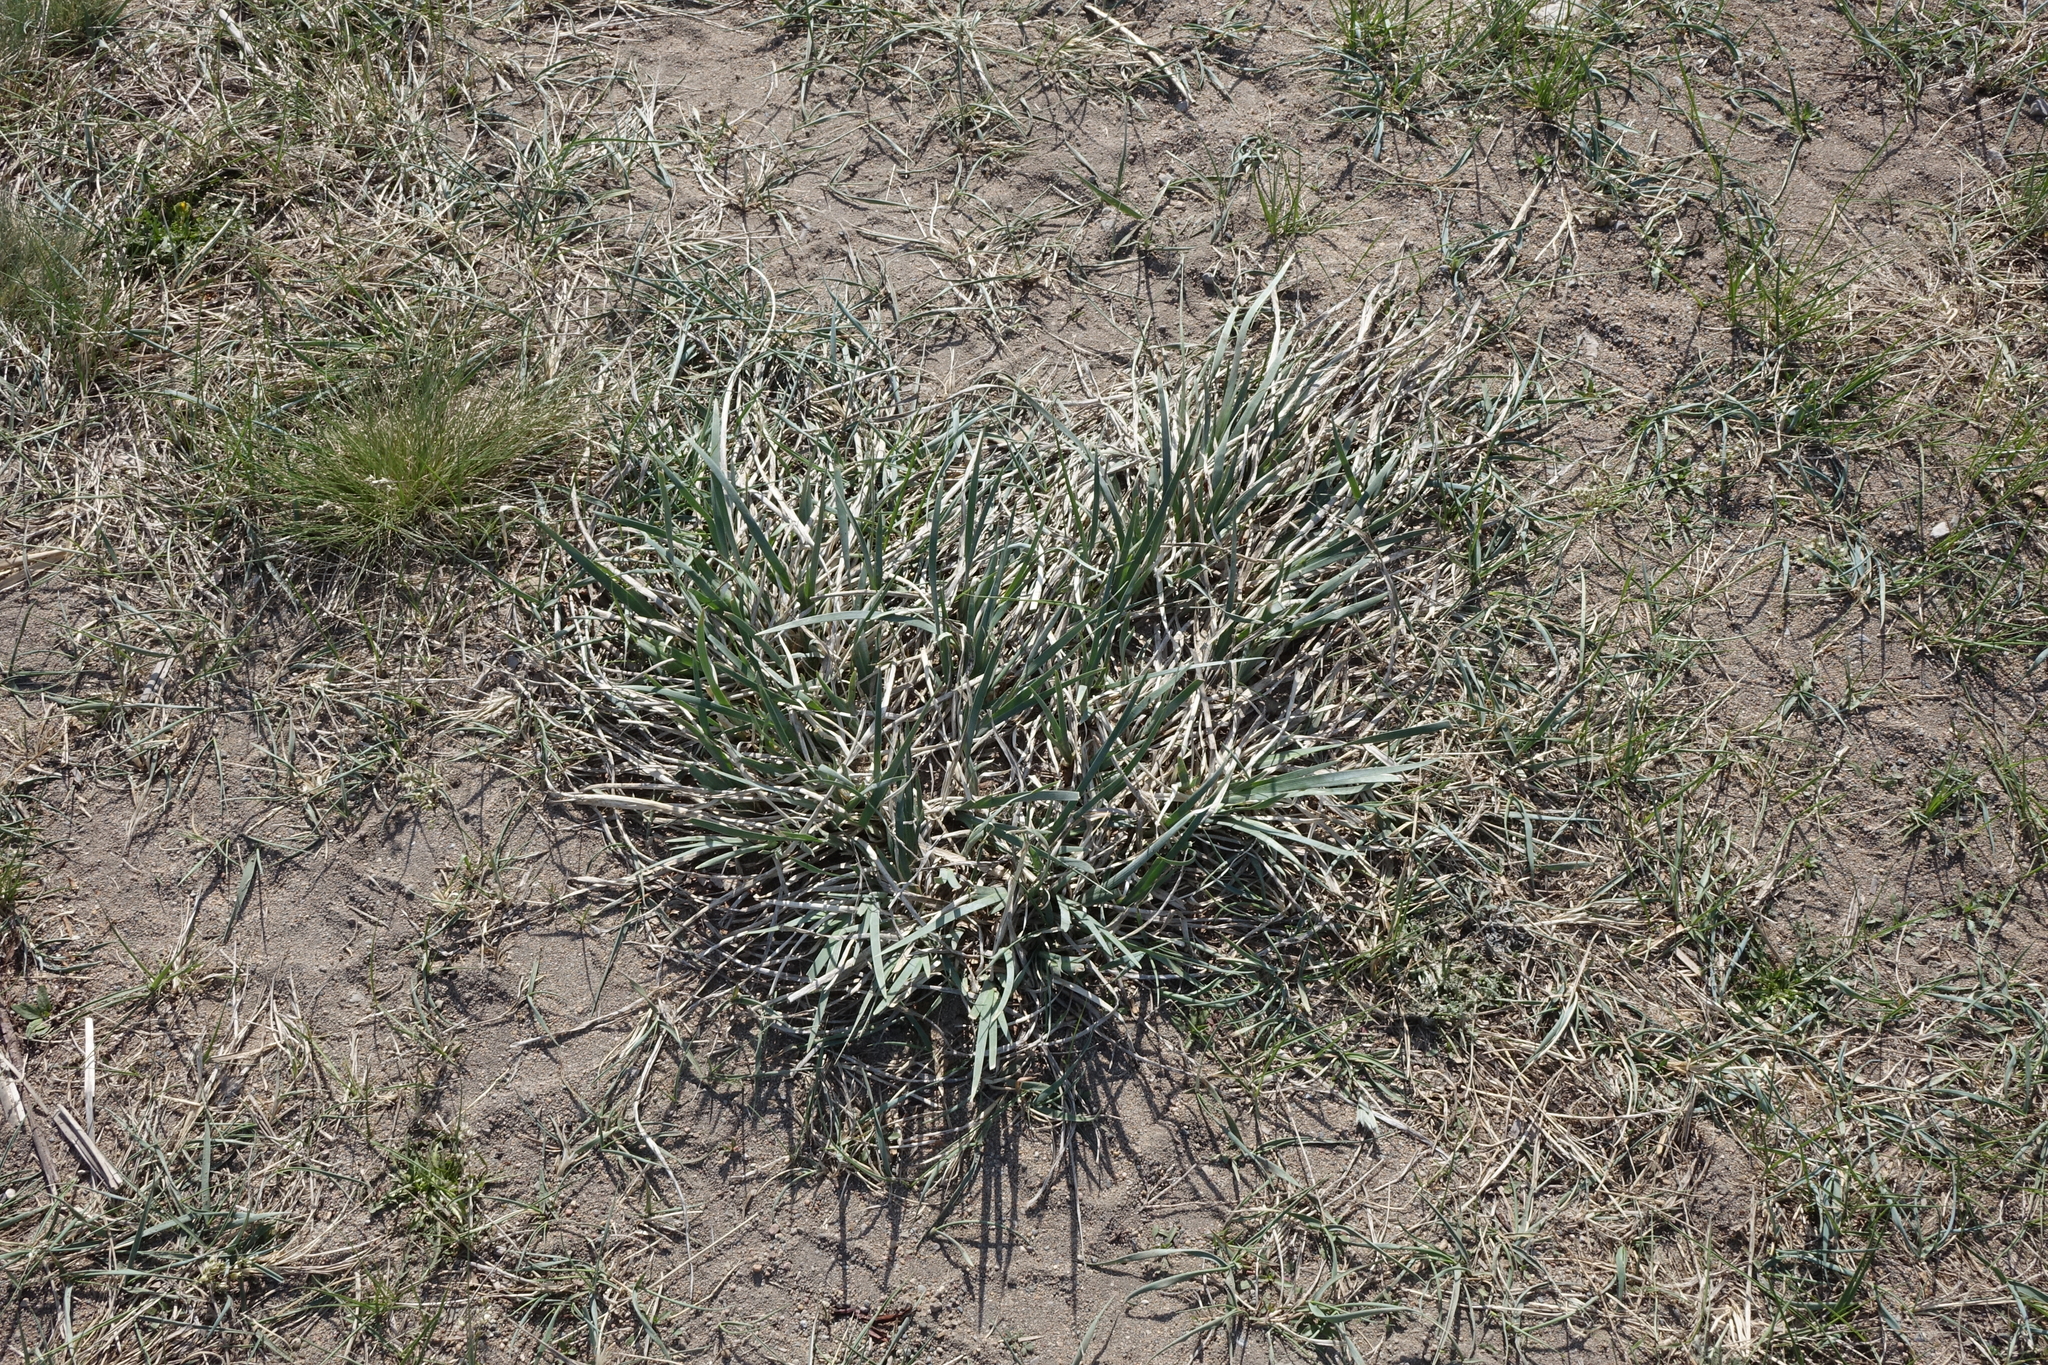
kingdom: Plantae
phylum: Tracheophyta
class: Liliopsida
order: Asparagales
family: Iridaceae
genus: Iris
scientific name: Iris lactea
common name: White-flower chinese iris
